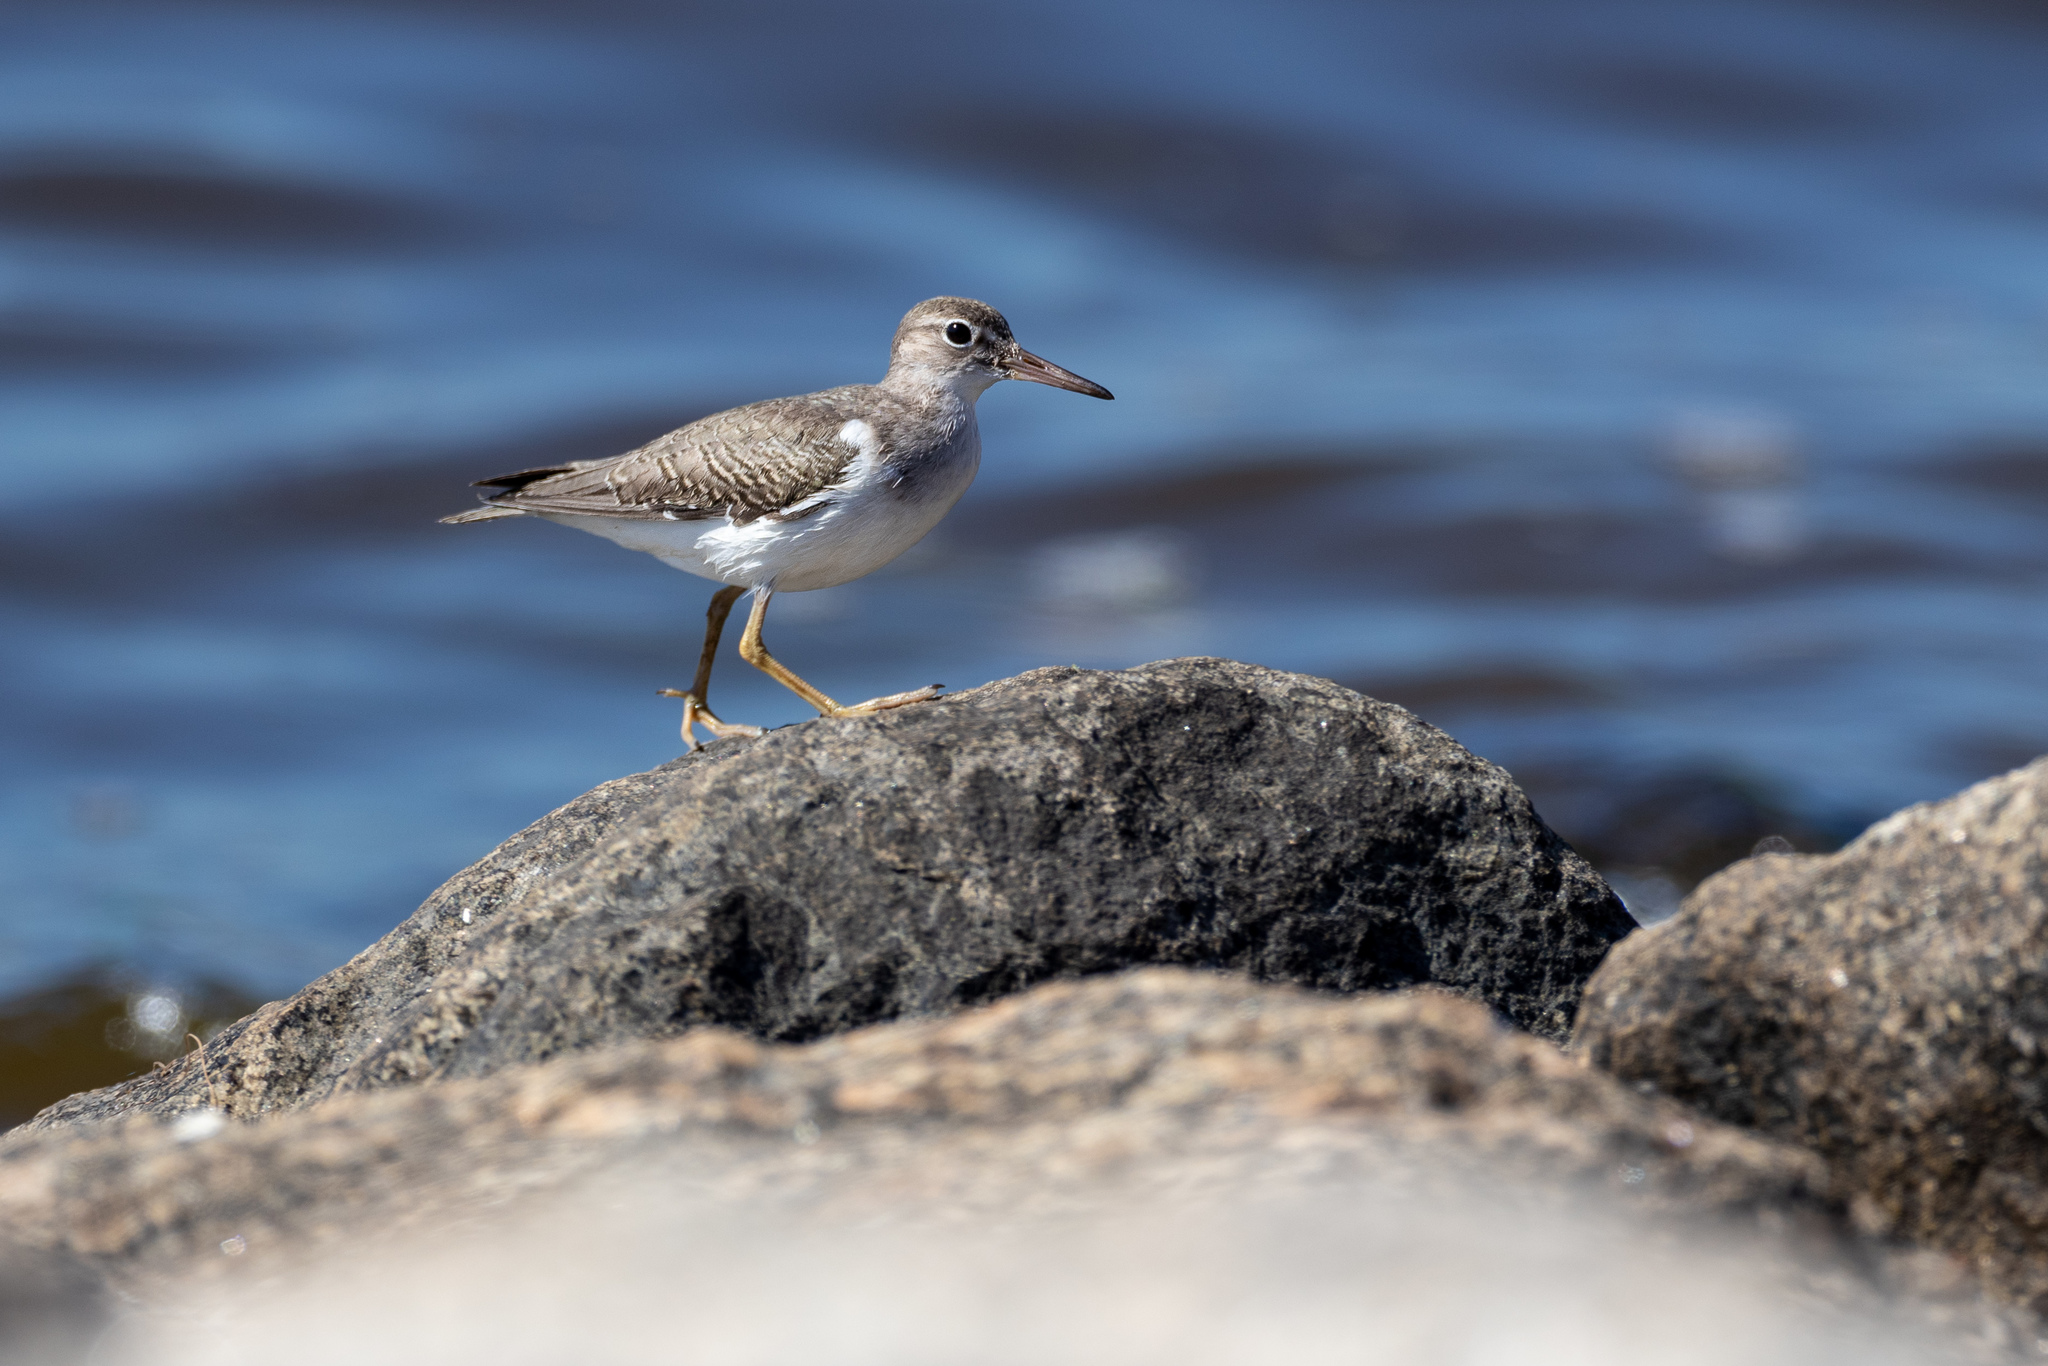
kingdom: Animalia
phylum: Chordata
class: Aves
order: Charadriiformes
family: Scolopacidae
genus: Actitis
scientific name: Actitis macularius
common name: Spotted sandpiper
